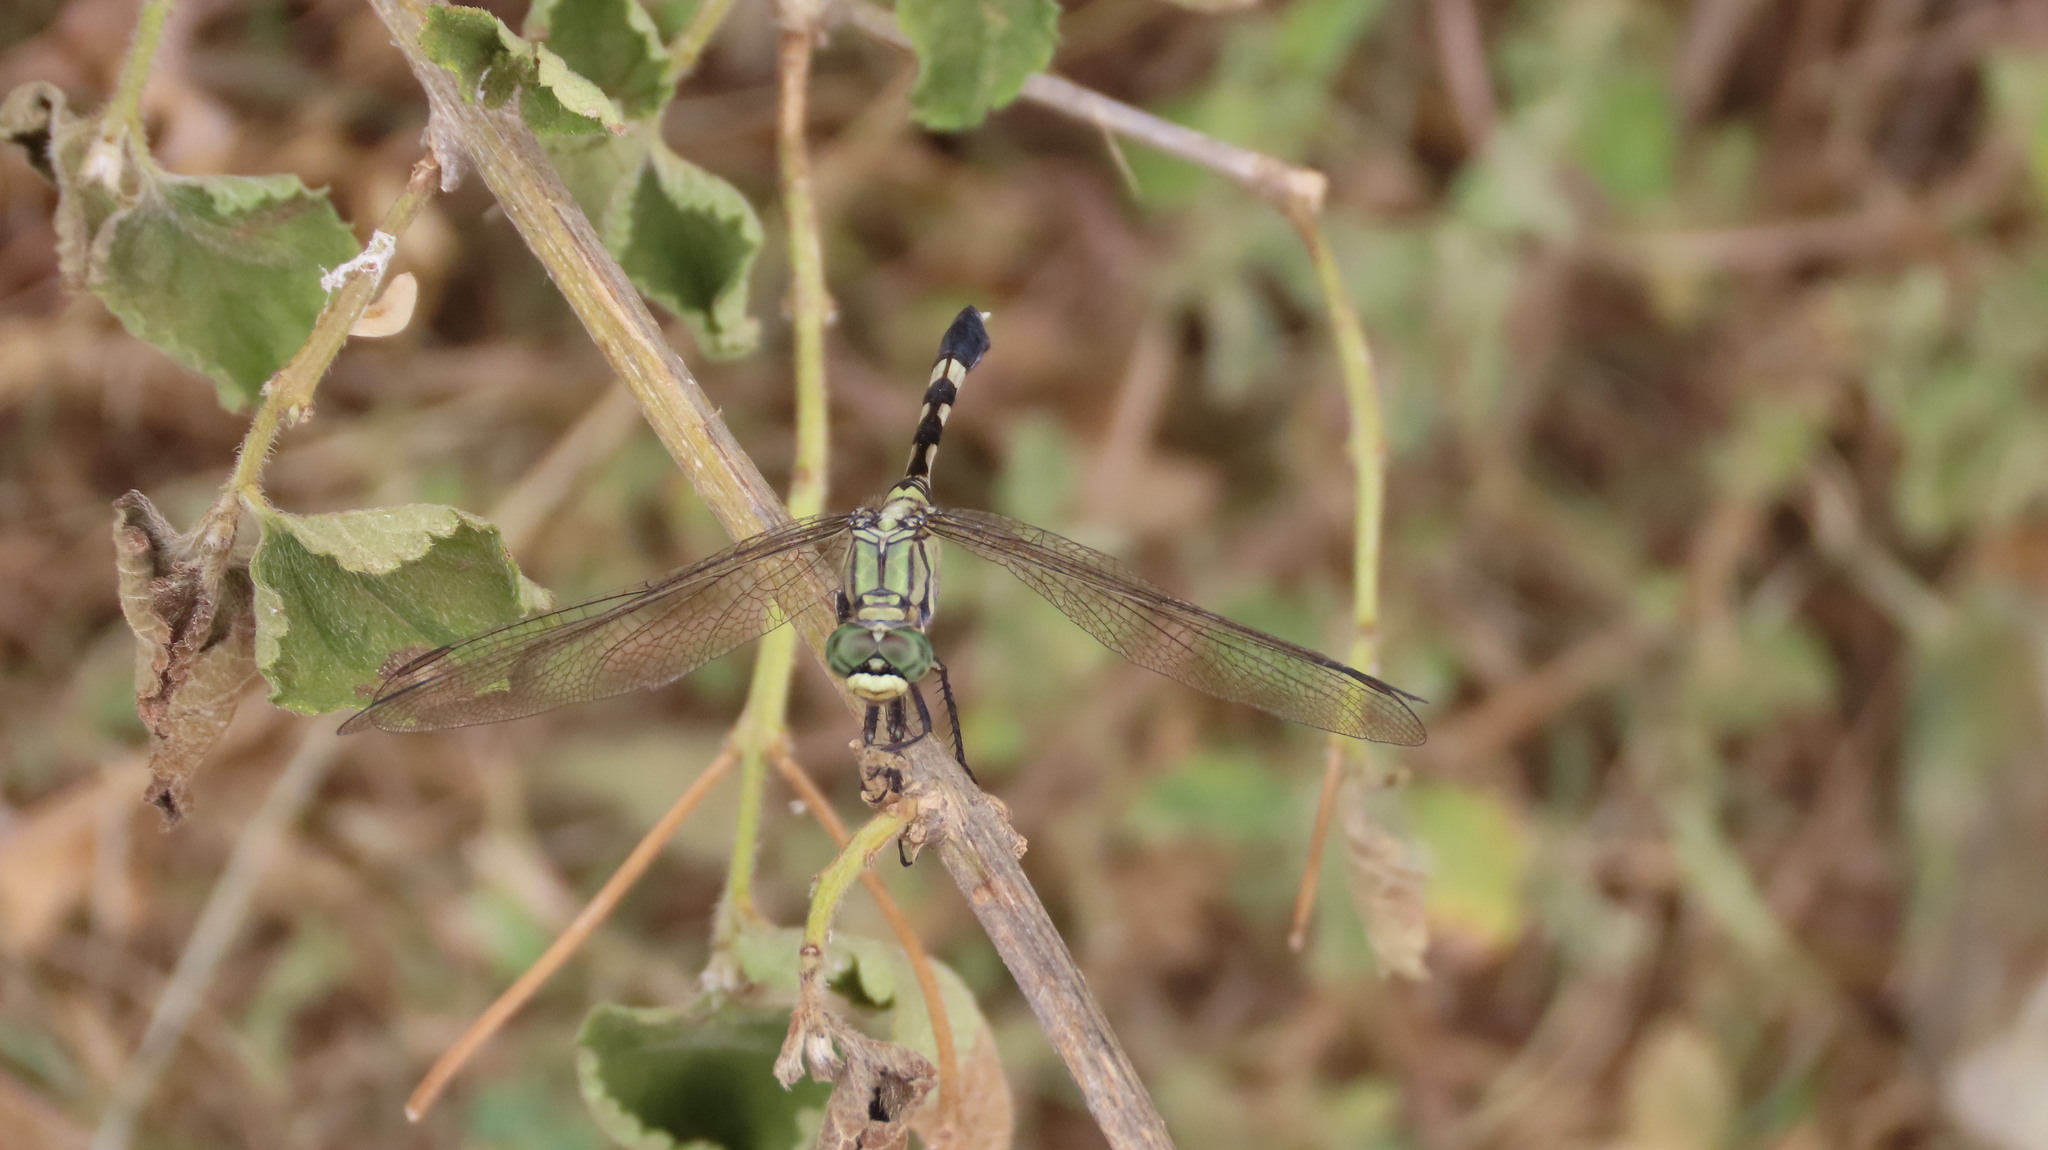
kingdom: Animalia
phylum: Arthropoda
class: Insecta
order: Odonata
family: Libellulidae
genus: Orthetrum
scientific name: Orthetrum sabina
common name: Slender skimmer
